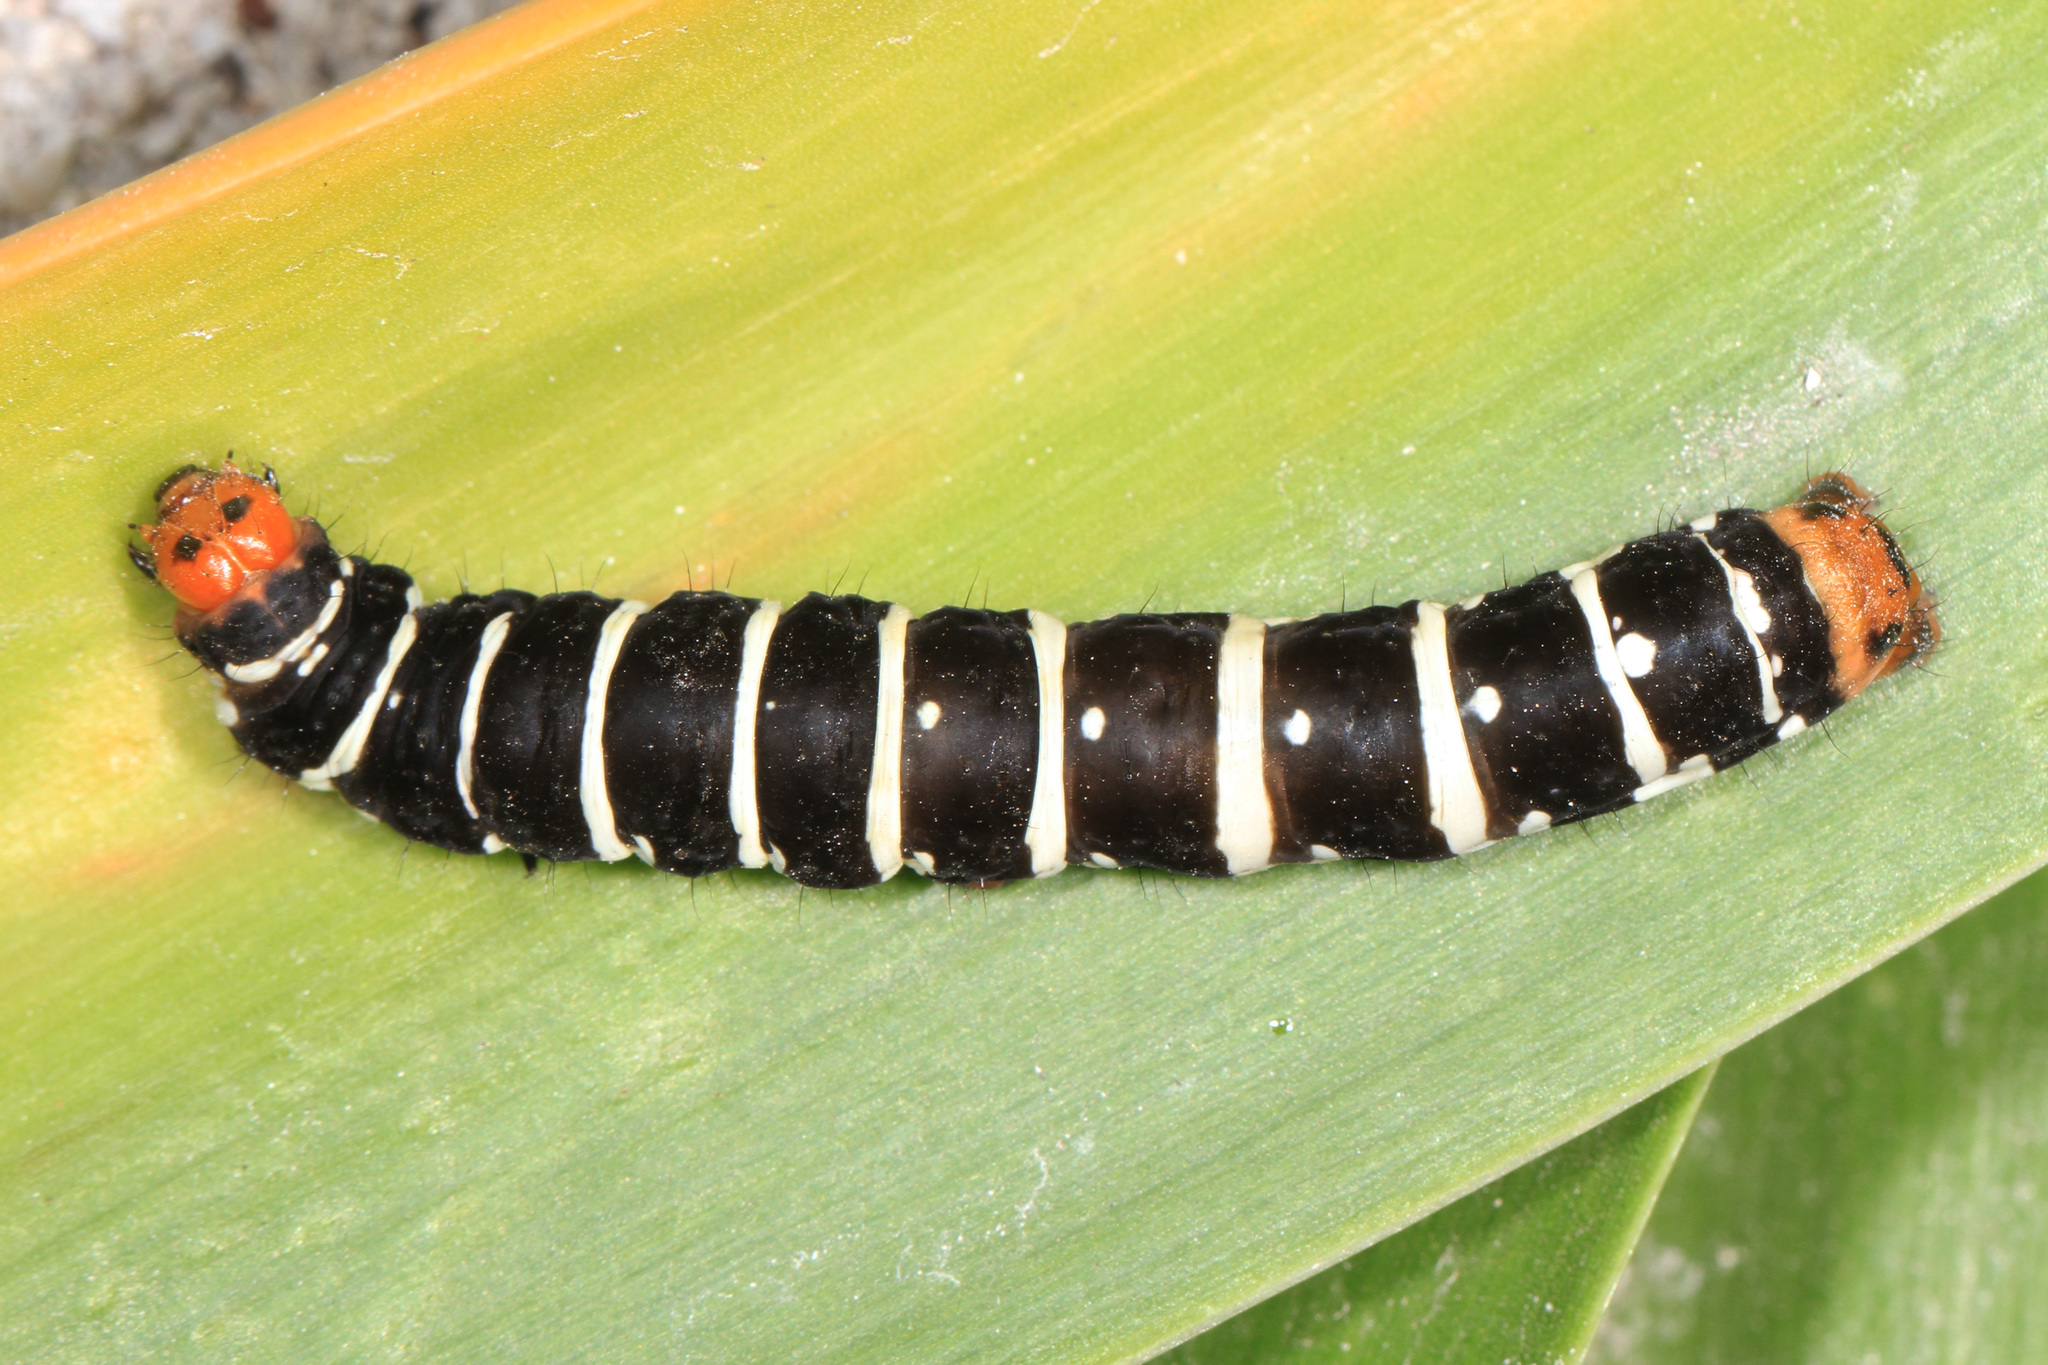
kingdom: Animalia
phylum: Arthropoda
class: Insecta
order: Lepidoptera
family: Noctuidae
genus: Xanthopastis
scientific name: Xanthopastis regnatrix
